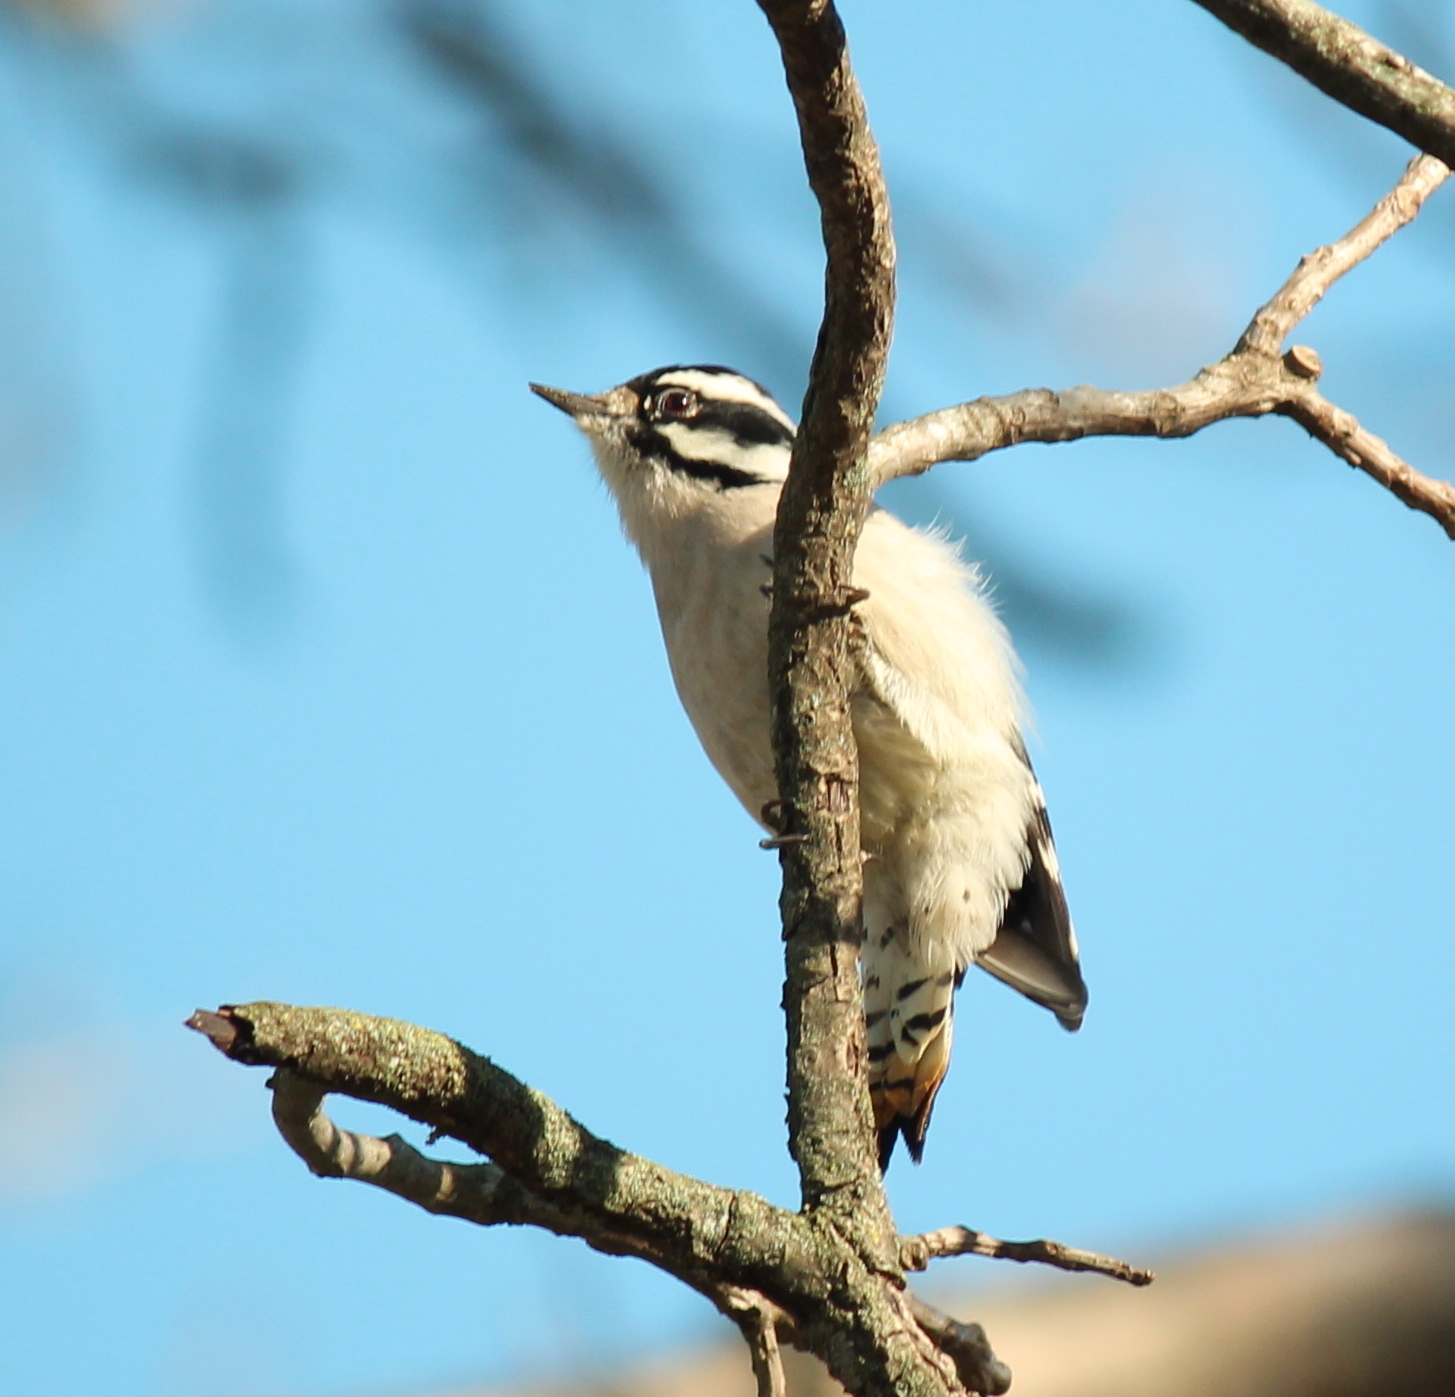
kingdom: Animalia
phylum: Chordata
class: Aves
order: Piciformes
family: Picidae
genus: Dryobates
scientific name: Dryobates pubescens
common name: Downy woodpecker
